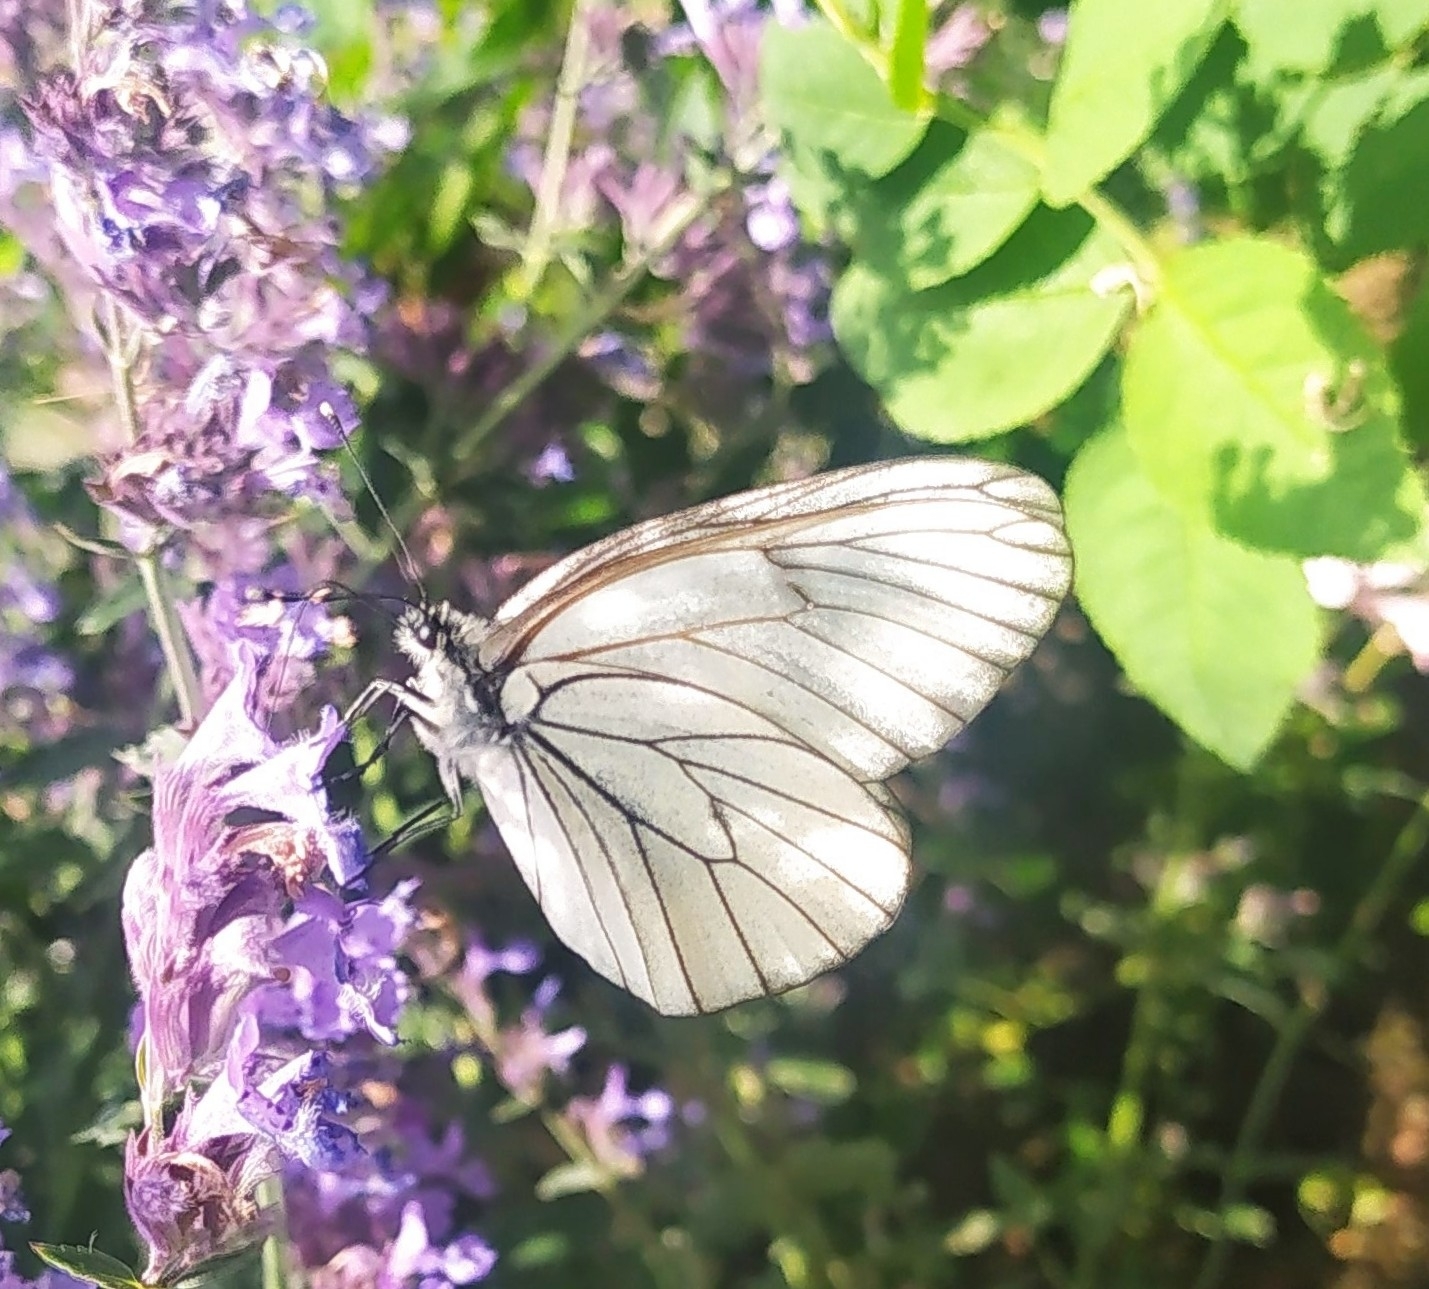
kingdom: Animalia
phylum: Arthropoda
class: Insecta
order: Lepidoptera
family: Pieridae
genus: Aporia
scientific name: Aporia crataegi
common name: Black-veined white
